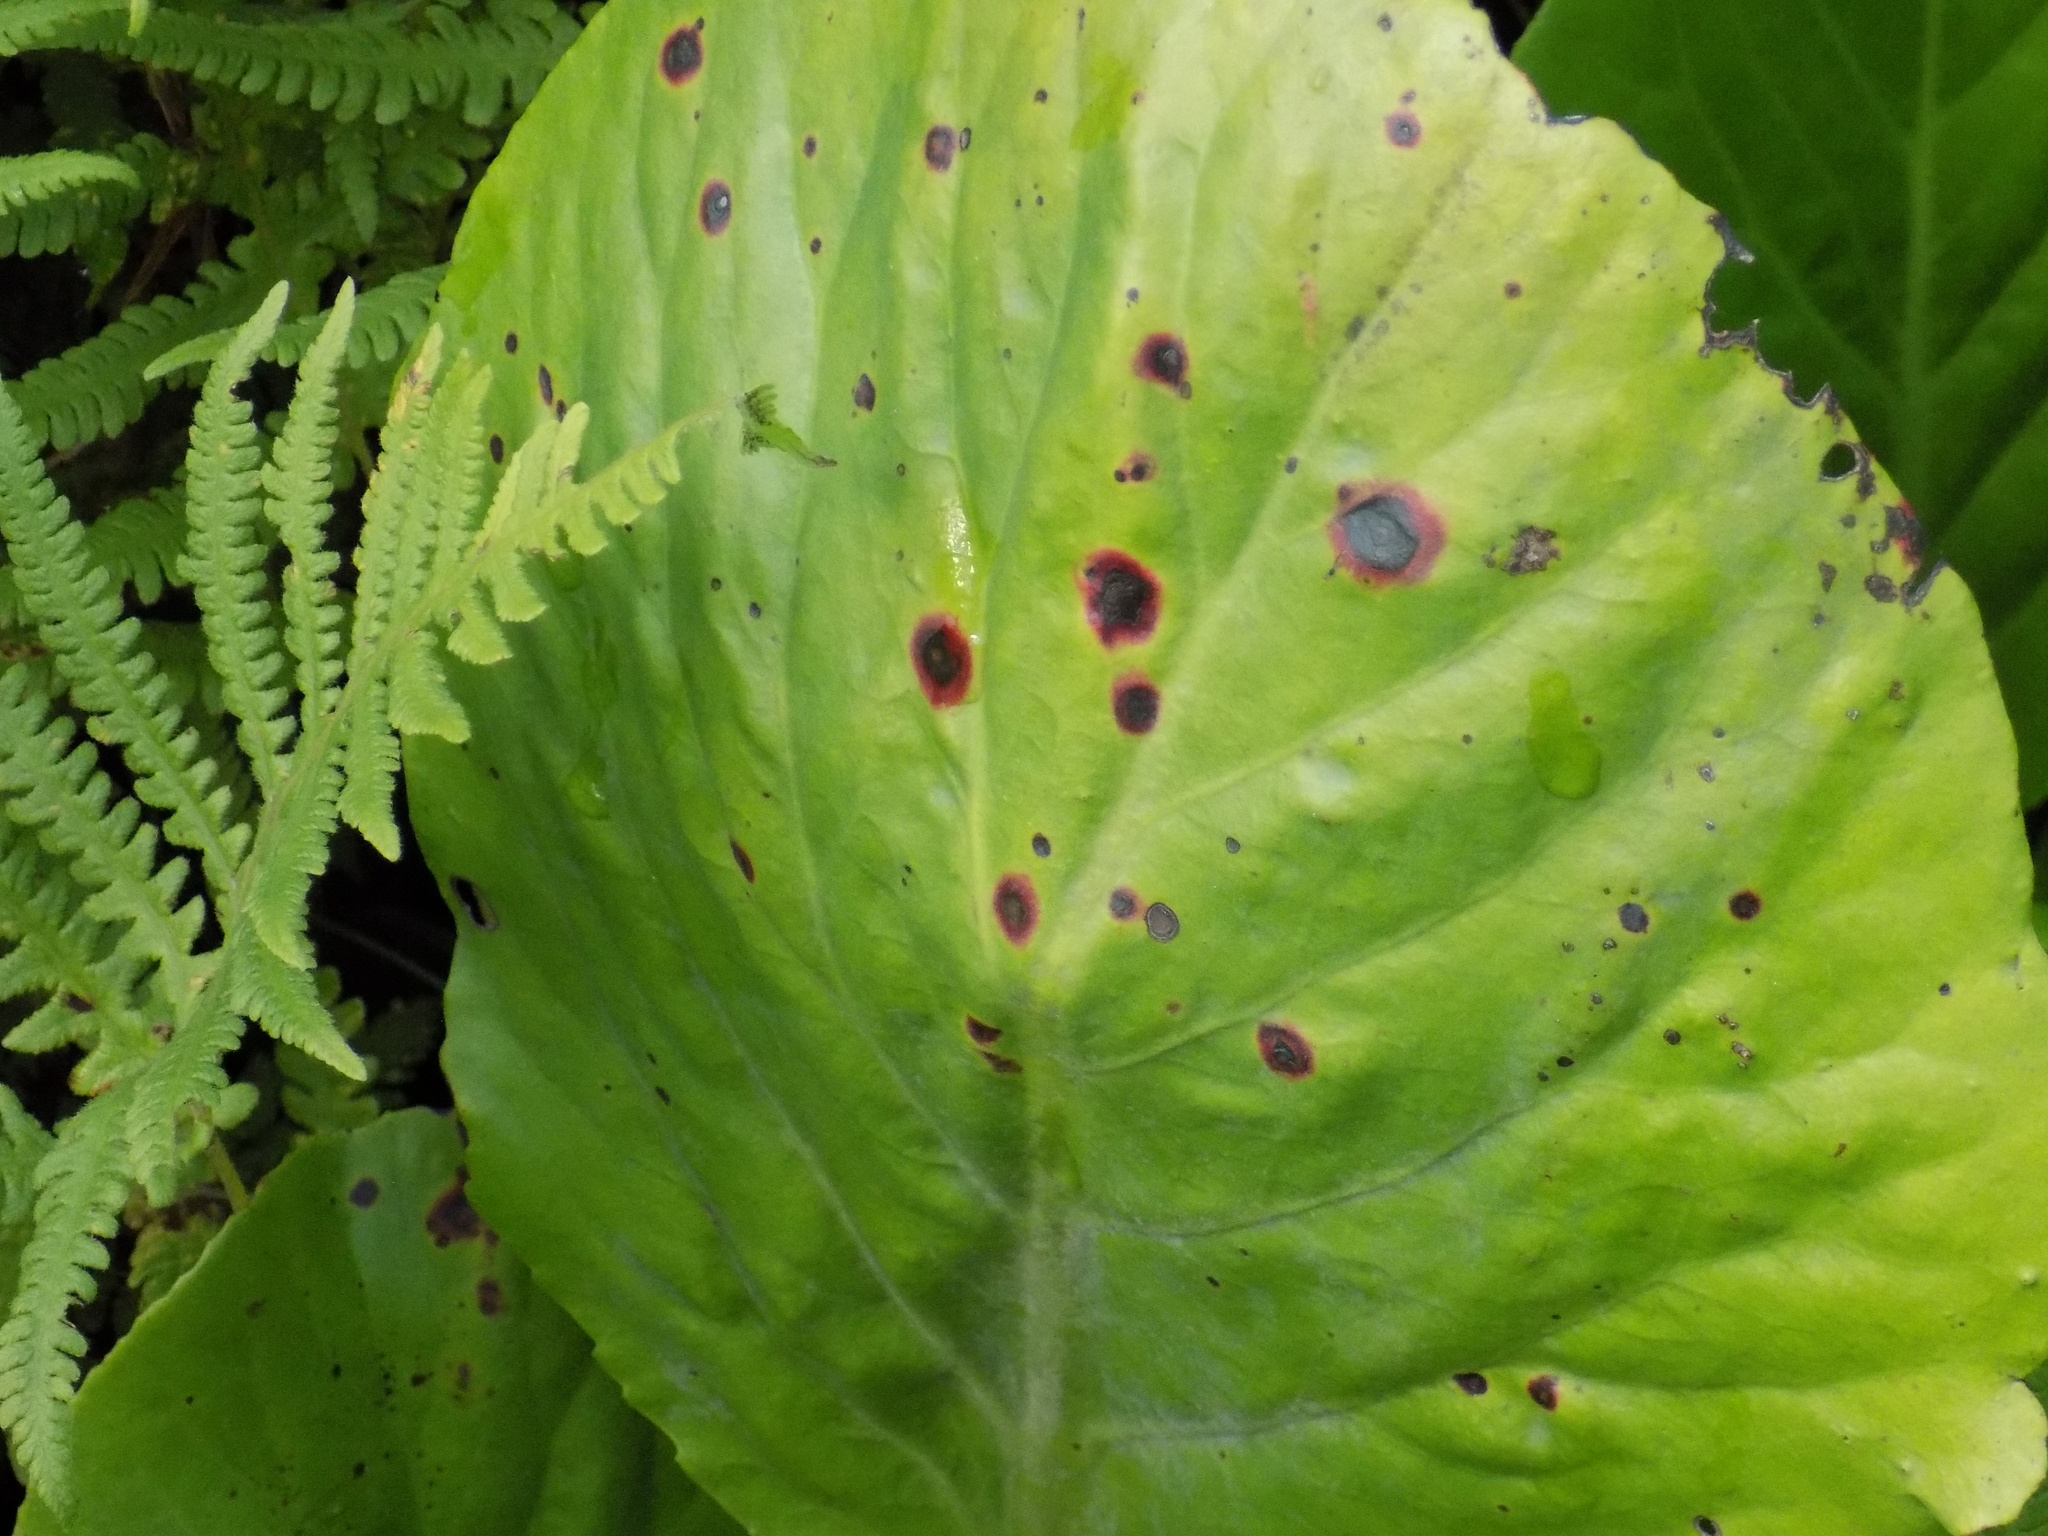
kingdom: Plantae
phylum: Tracheophyta
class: Magnoliopsida
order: Saxifragales
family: Saxifragaceae
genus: Bergenia
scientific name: Bergenia crassifolia
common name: Elephant-ears
